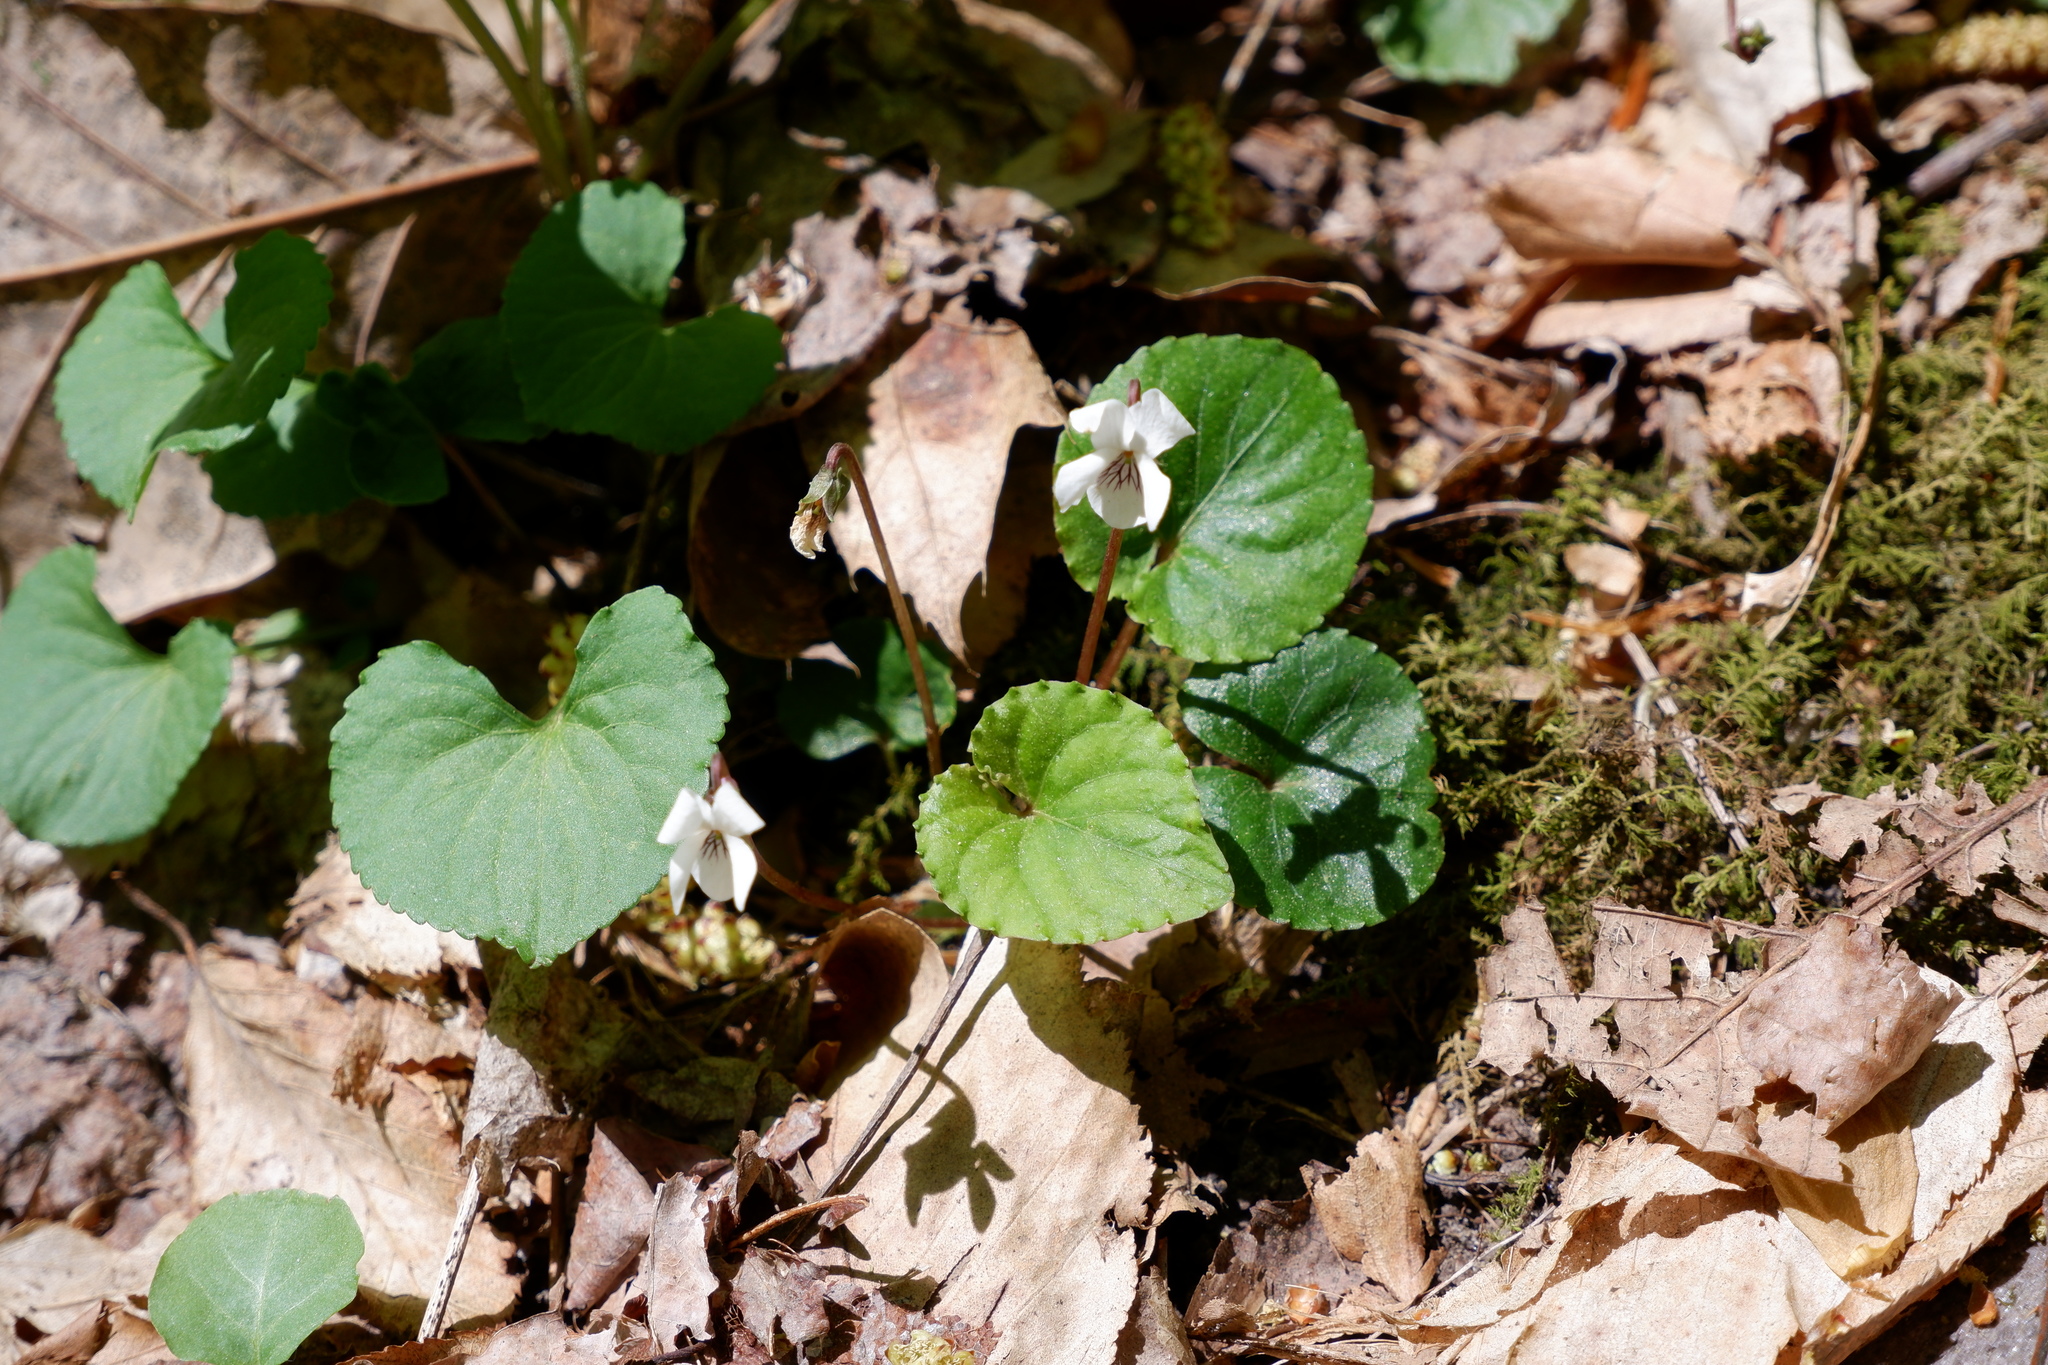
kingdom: Plantae
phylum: Tracheophyta
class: Magnoliopsida
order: Malpighiales
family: Violaceae
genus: Viola
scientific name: Viola blanda
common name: Sweet white violet
